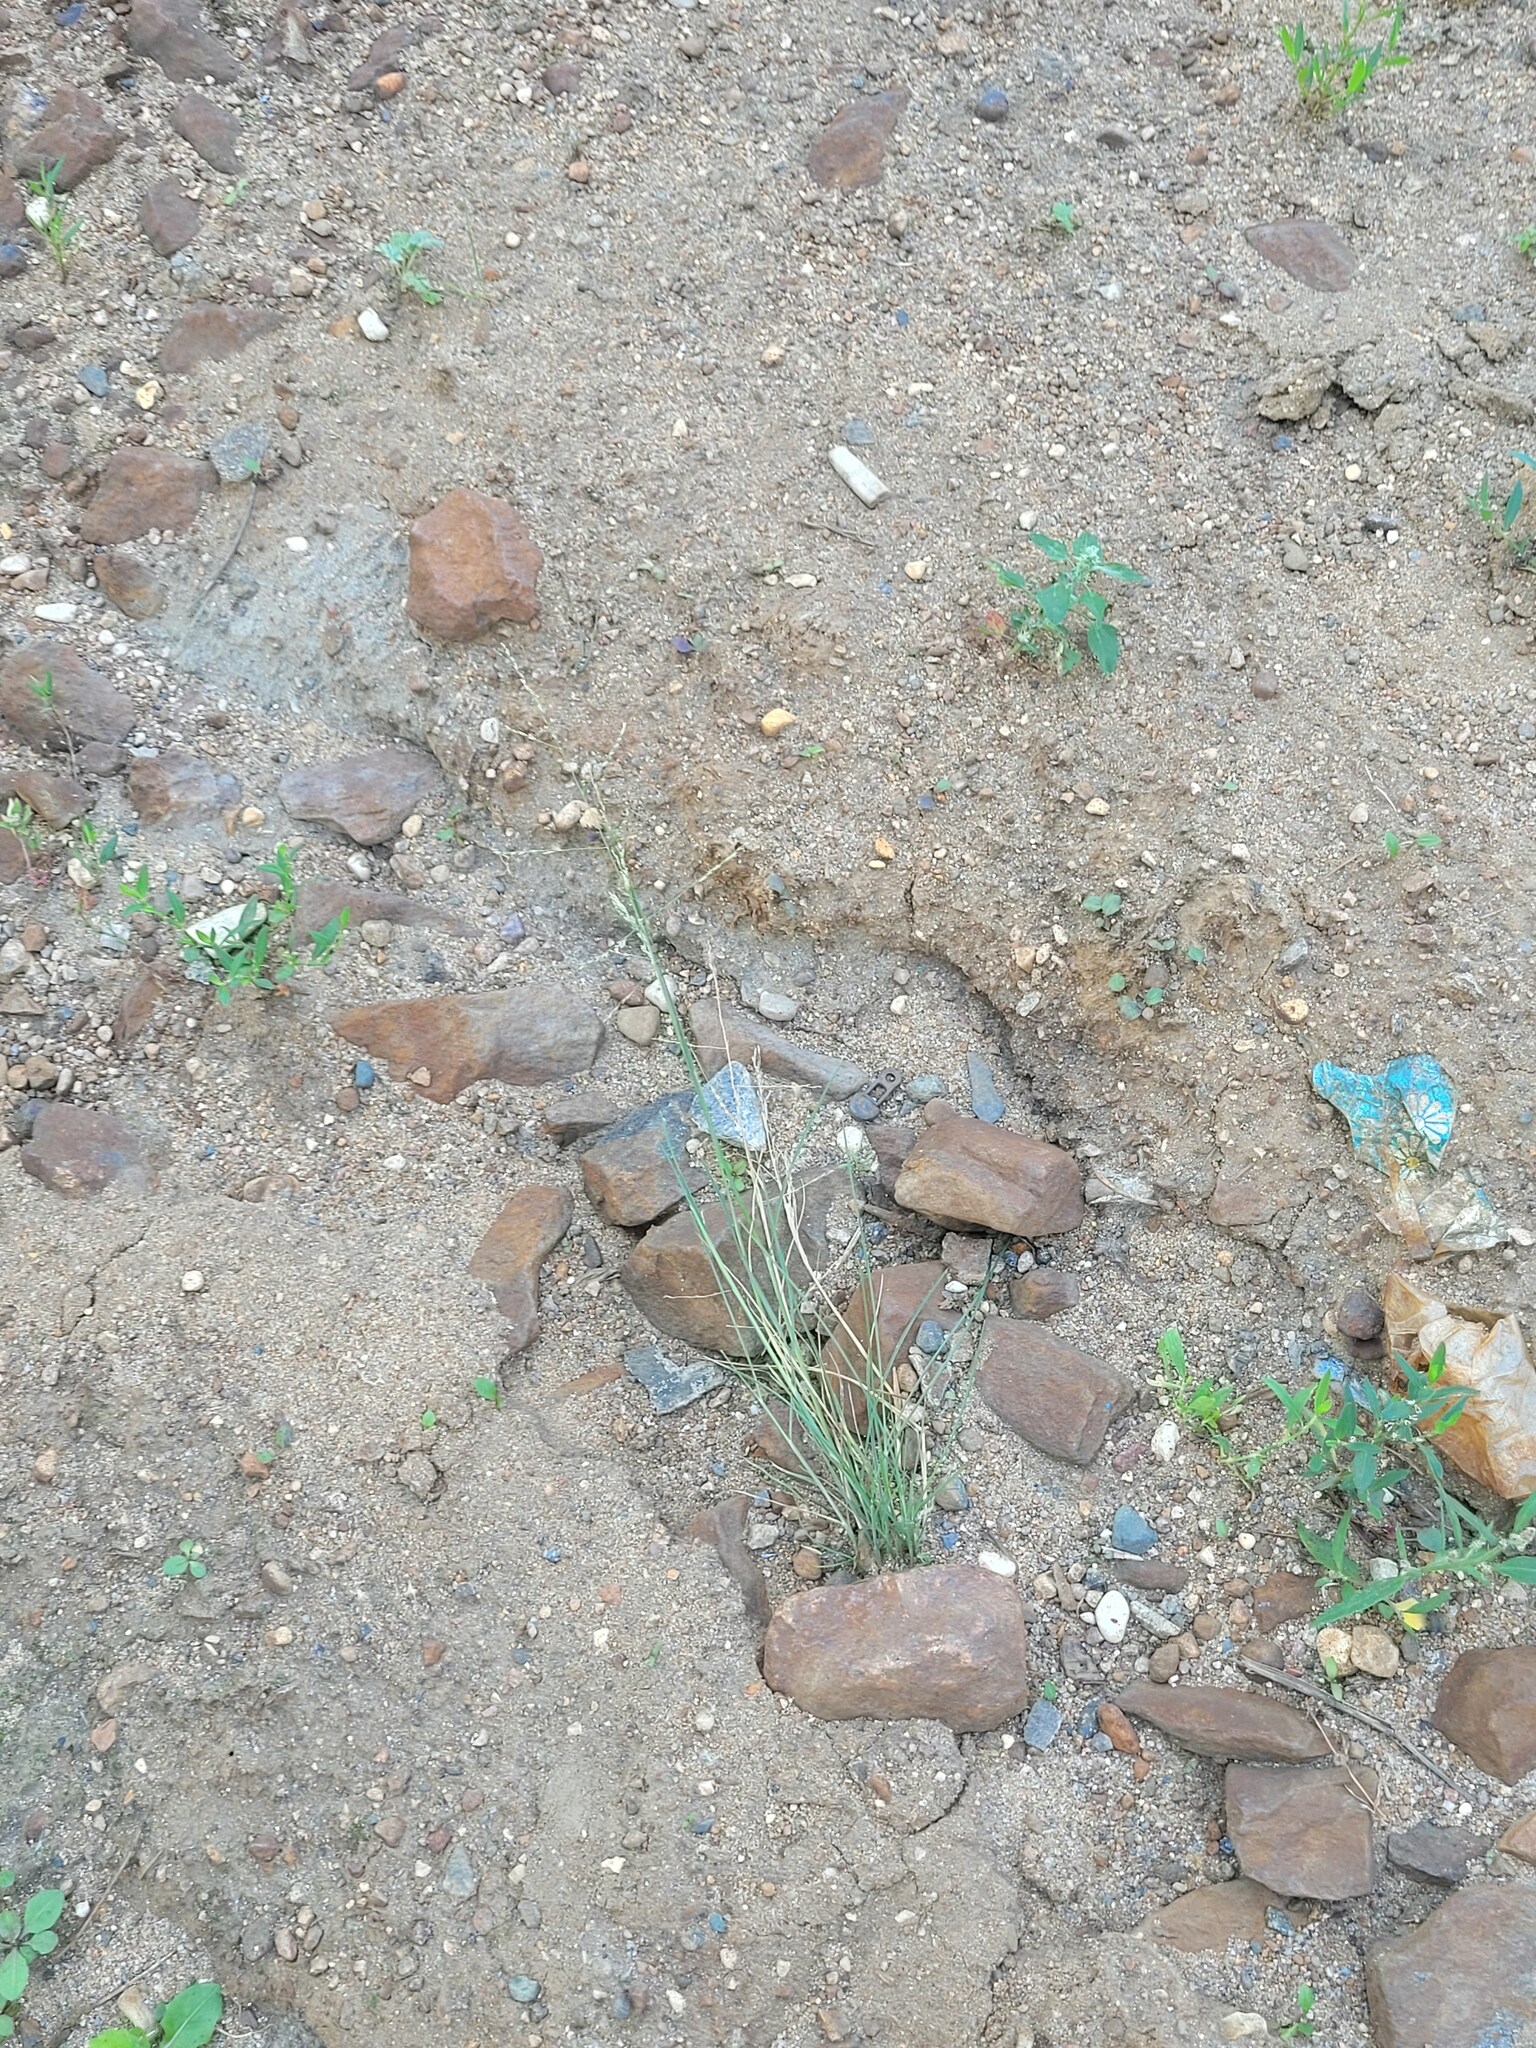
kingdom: Plantae
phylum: Tracheophyta
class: Liliopsida
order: Poales
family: Poaceae
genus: Puccinellia
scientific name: Puccinellia distans
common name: Weeping alkaligrass
